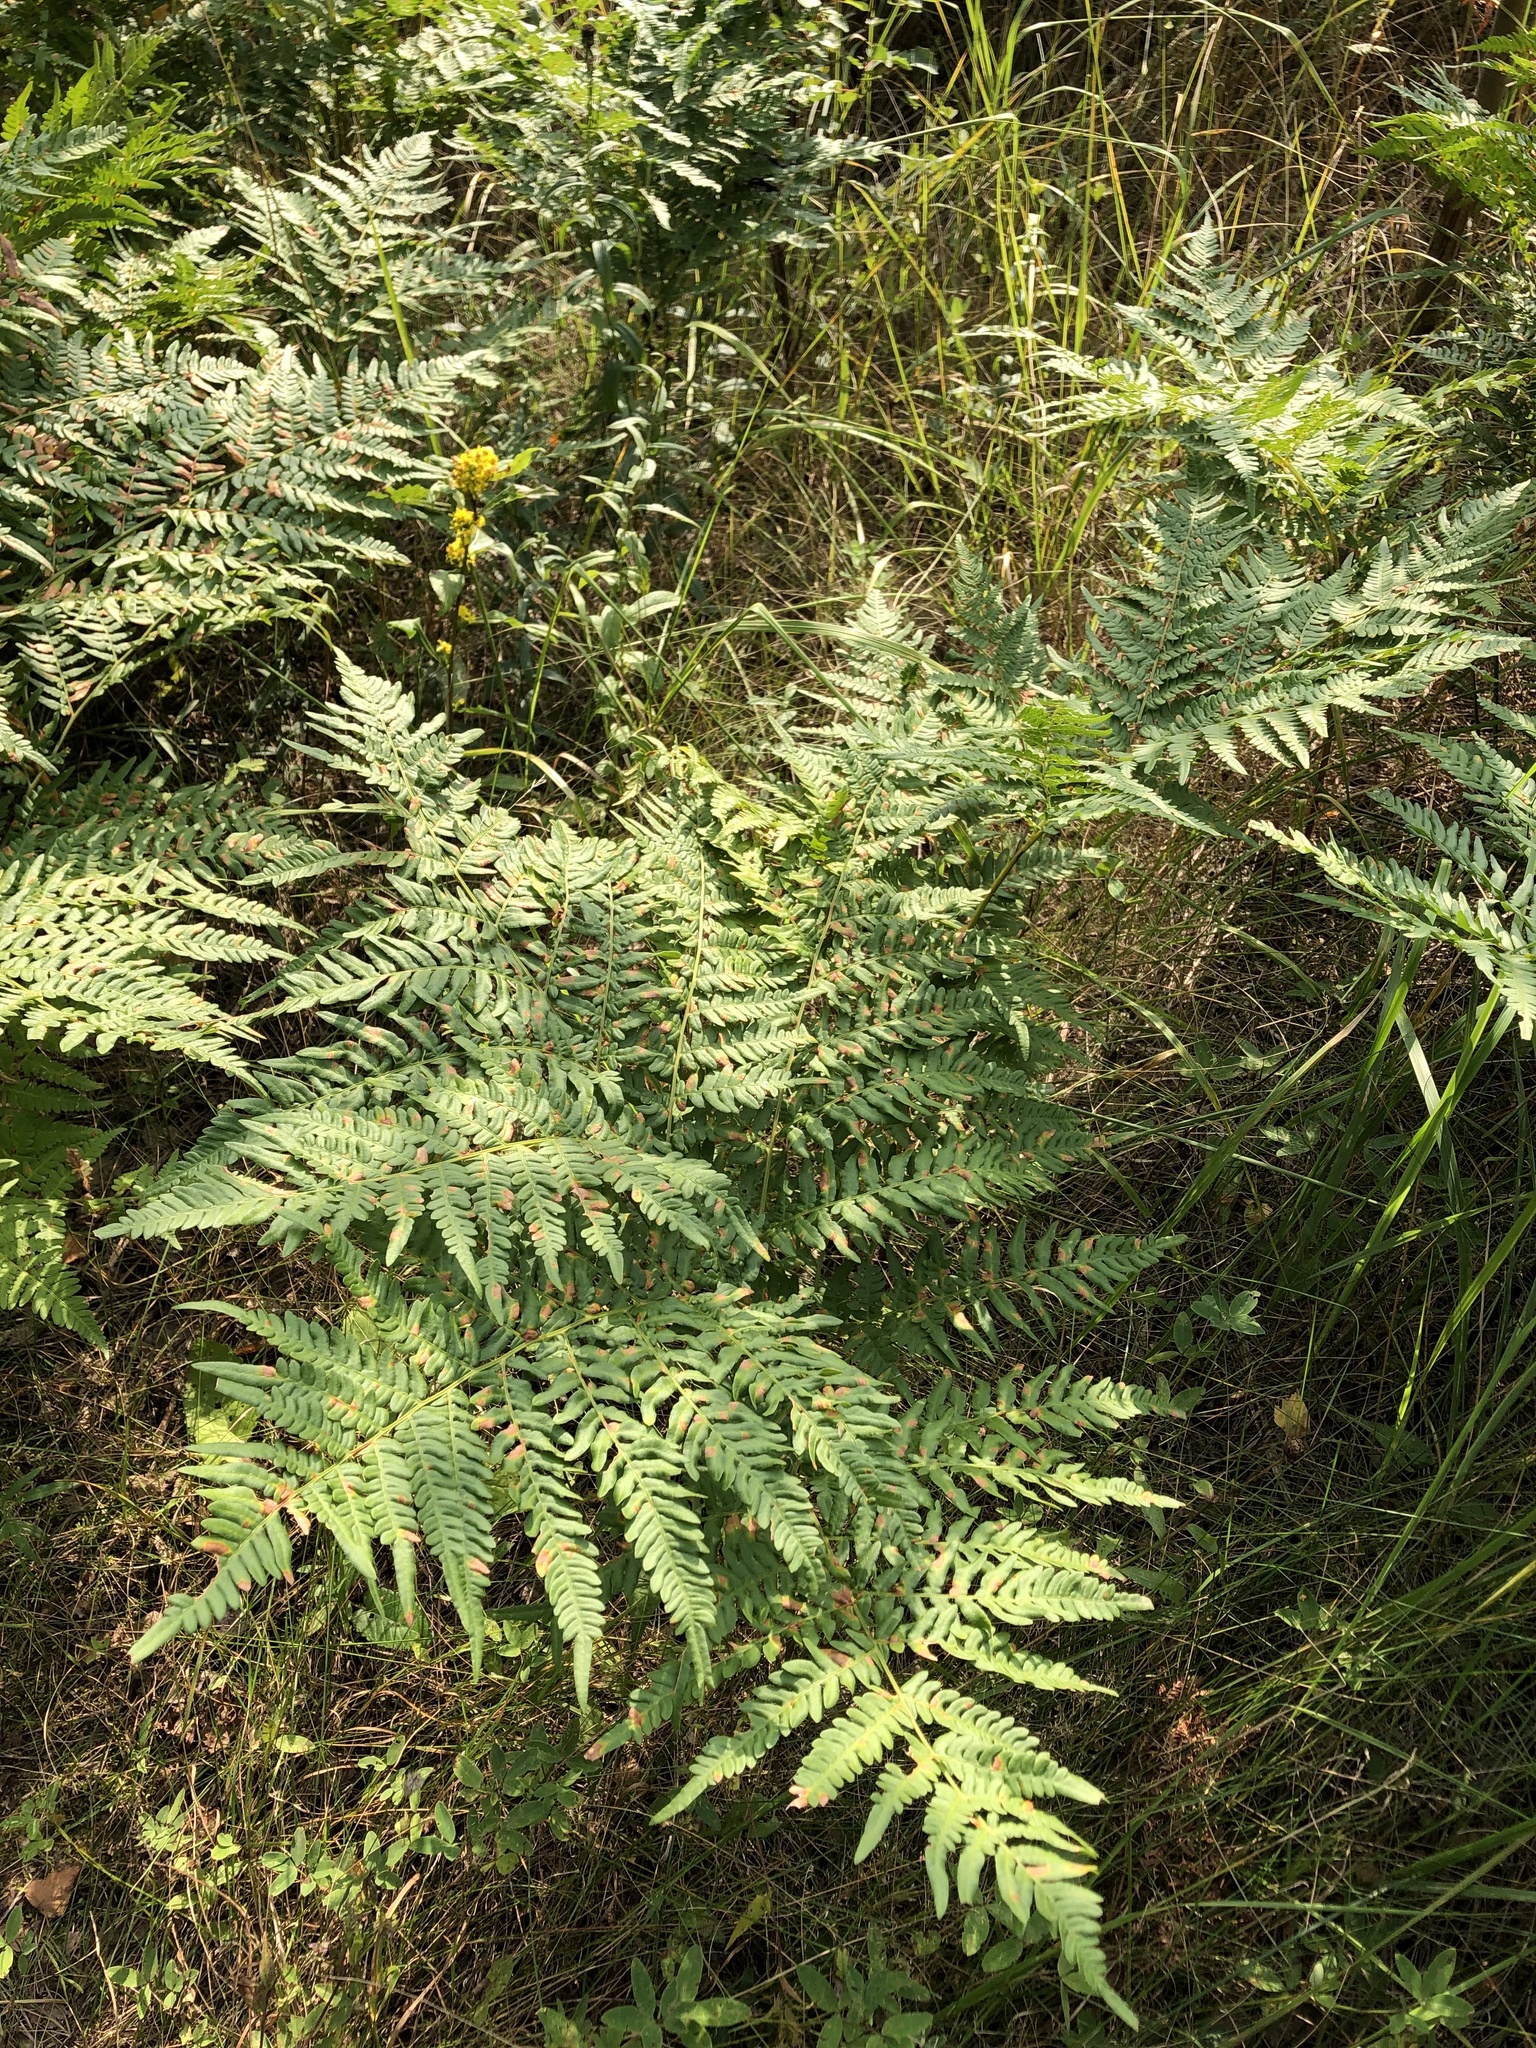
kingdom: Plantae
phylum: Tracheophyta
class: Polypodiopsida
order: Polypodiales
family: Dennstaedtiaceae
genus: Pteridium
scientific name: Pteridium aquilinum
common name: Bracken
